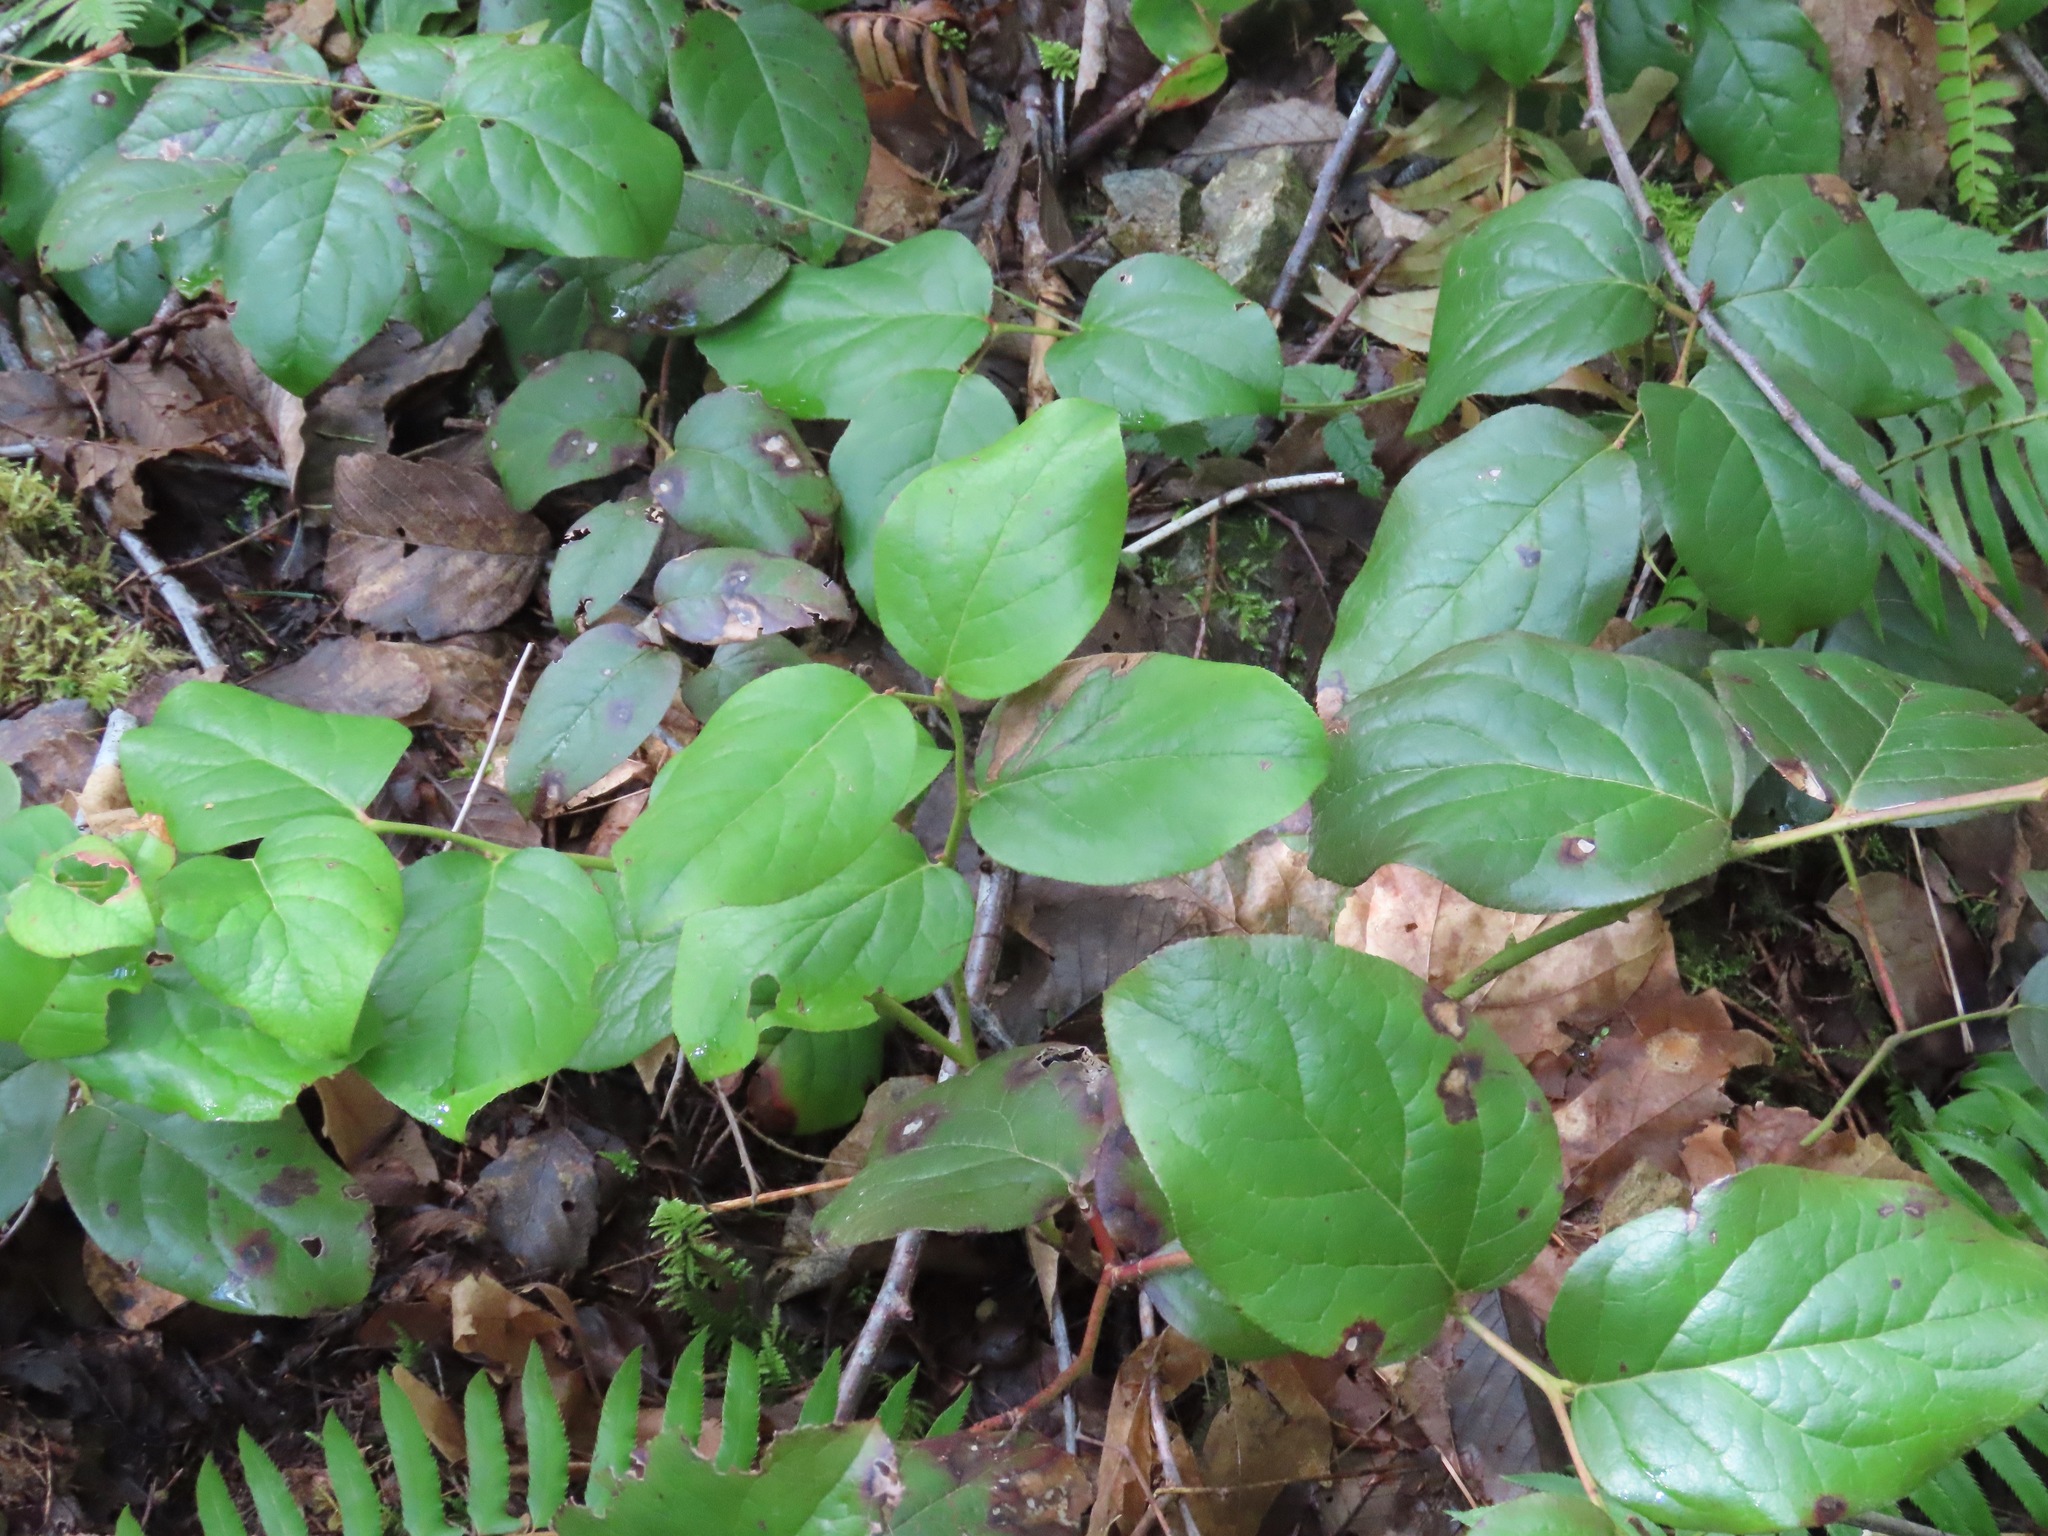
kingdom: Plantae
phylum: Tracheophyta
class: Magnoliopsida
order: Ericales
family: Ericaceae
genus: Gaultheria
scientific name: Gaultheria shallon
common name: Shallon
